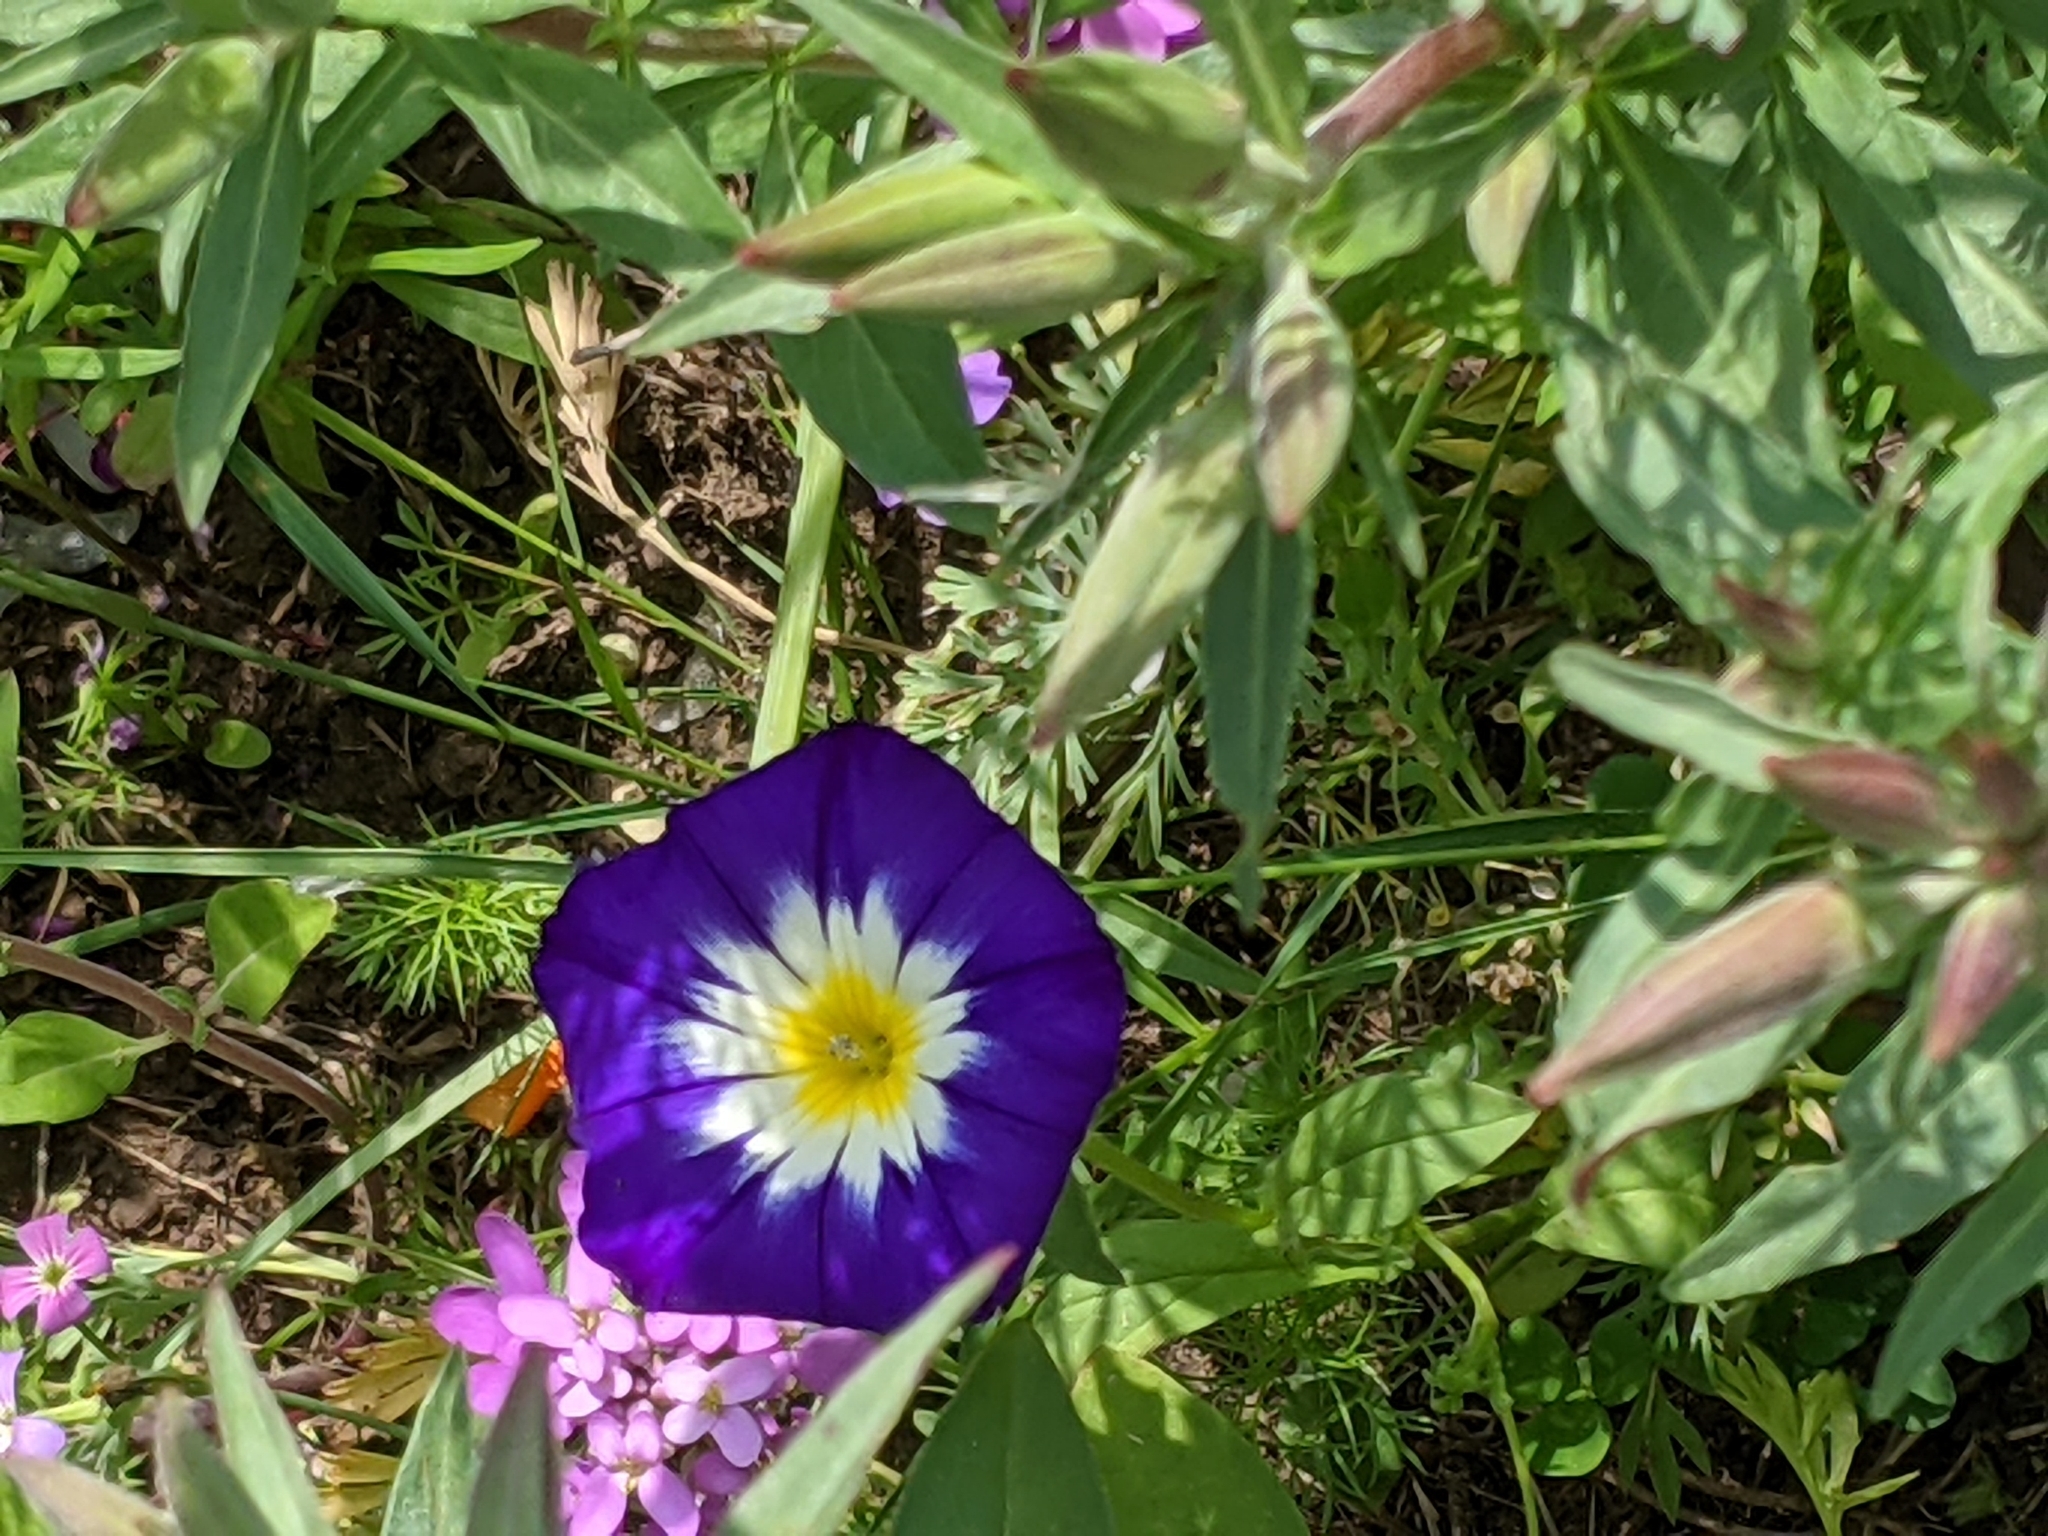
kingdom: Plantae
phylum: Tracheophyta
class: Magnoliopsida
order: Solanales
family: Convolvulaceae
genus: Convolvulus
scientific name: Convolvulus tricolor
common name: Dwarf morning-glory
